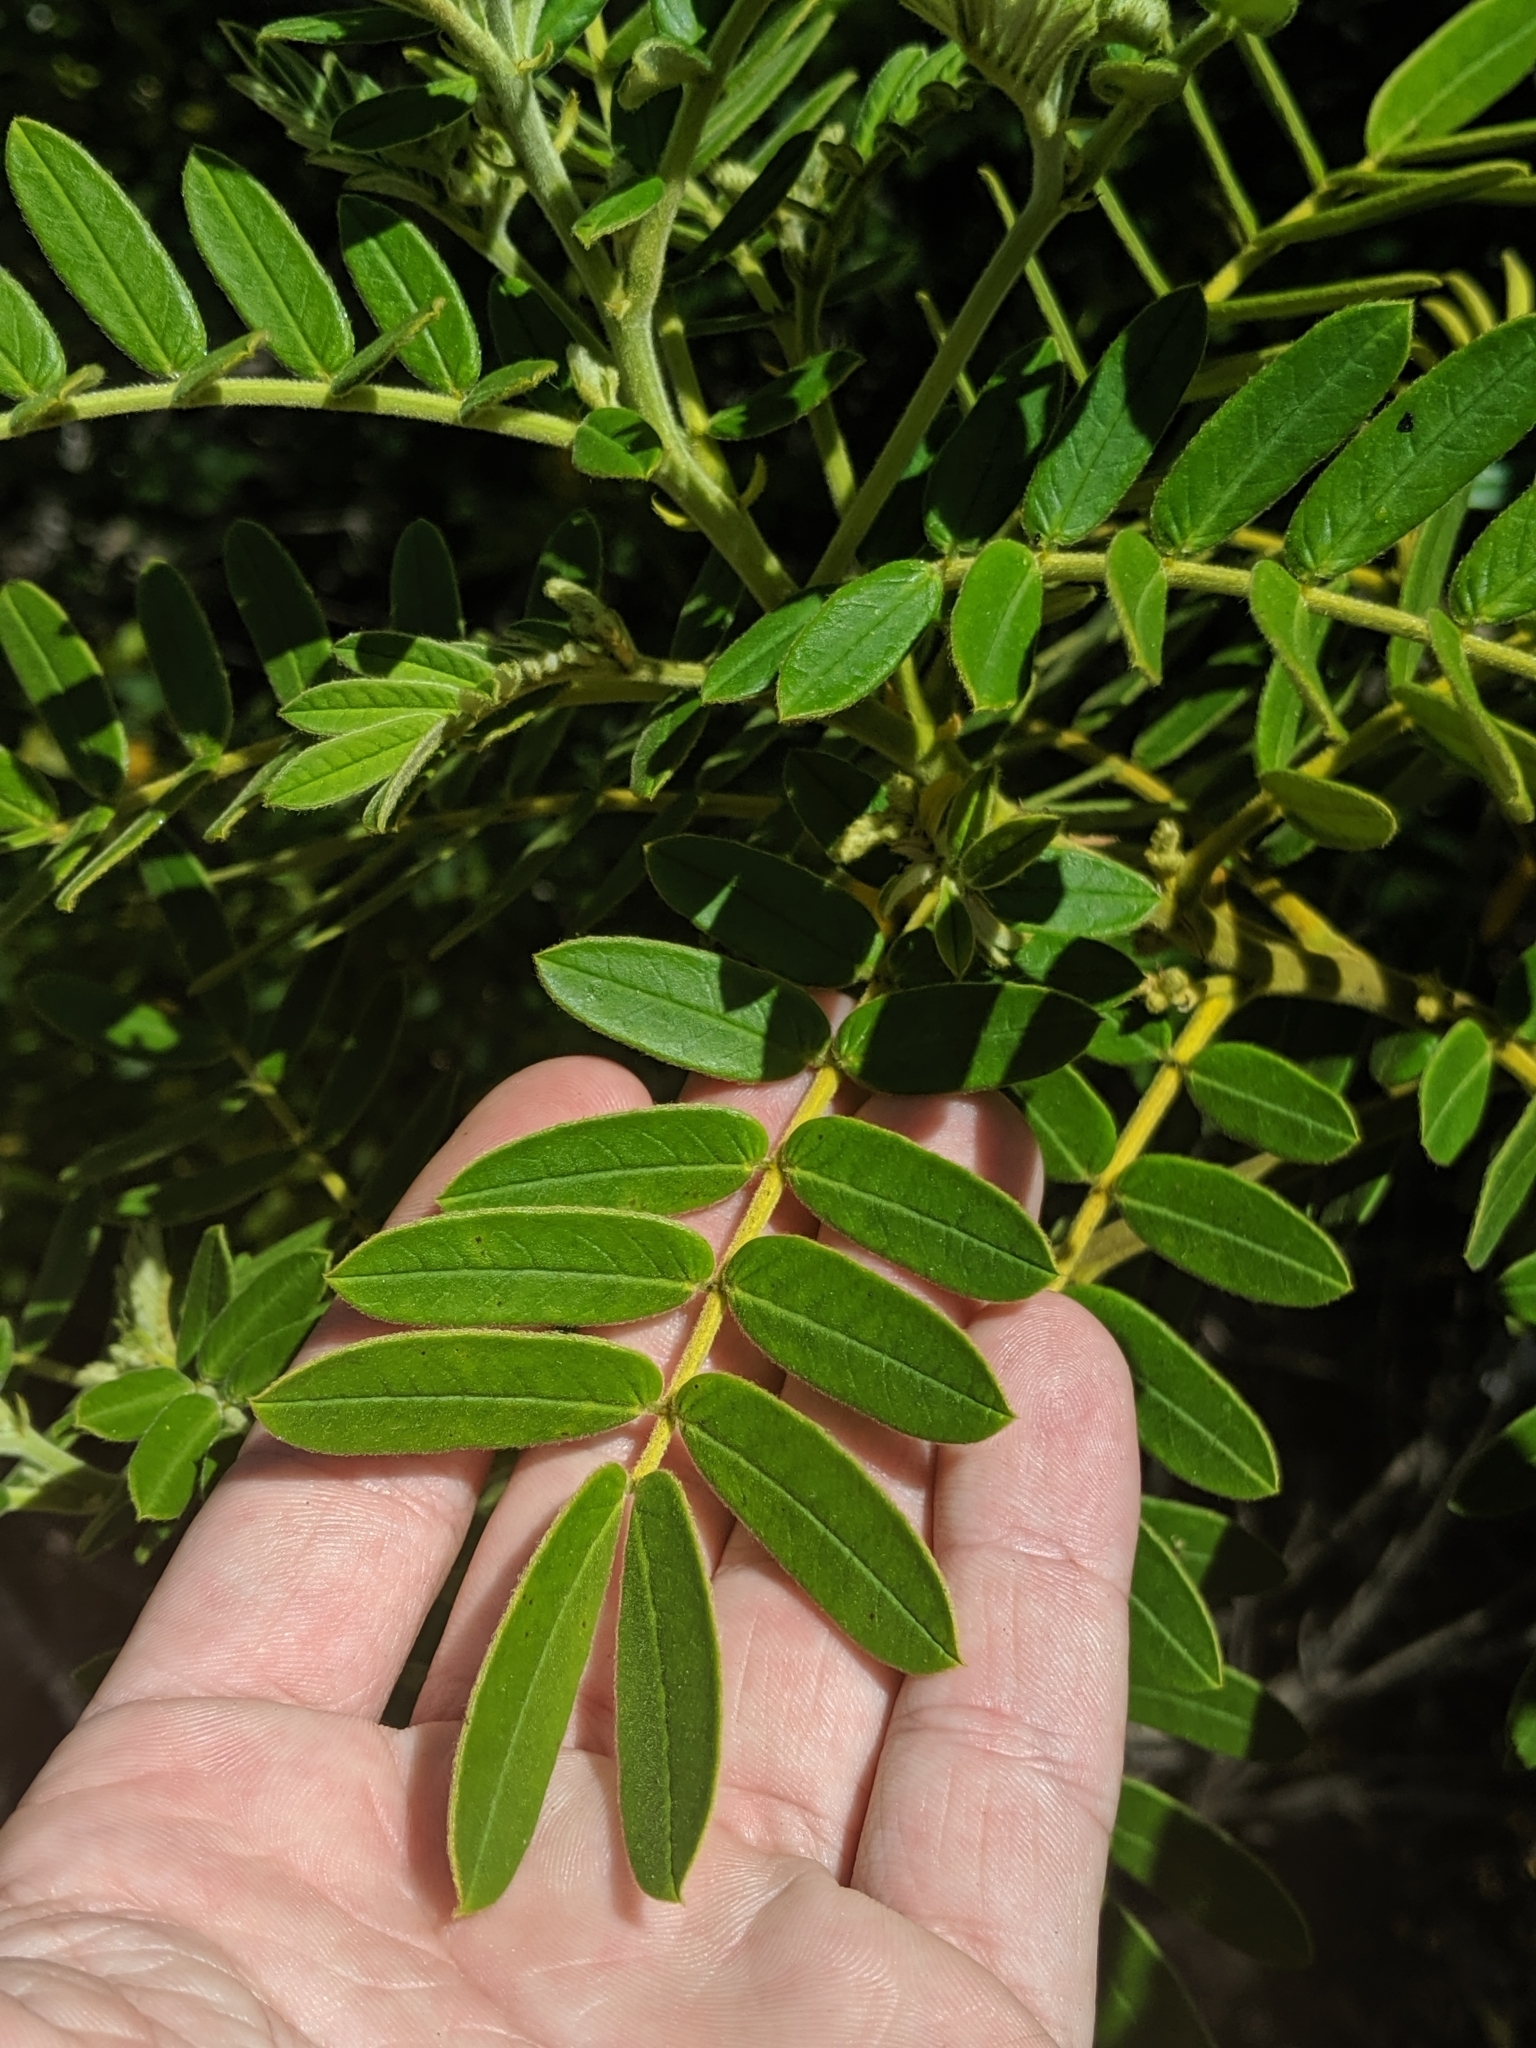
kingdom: Plantae
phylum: Tracheophyta
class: Magnoliopsida
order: Fabales
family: Fabaceae
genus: Senna
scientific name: Senna multiglandulosa
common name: Glandular senna
